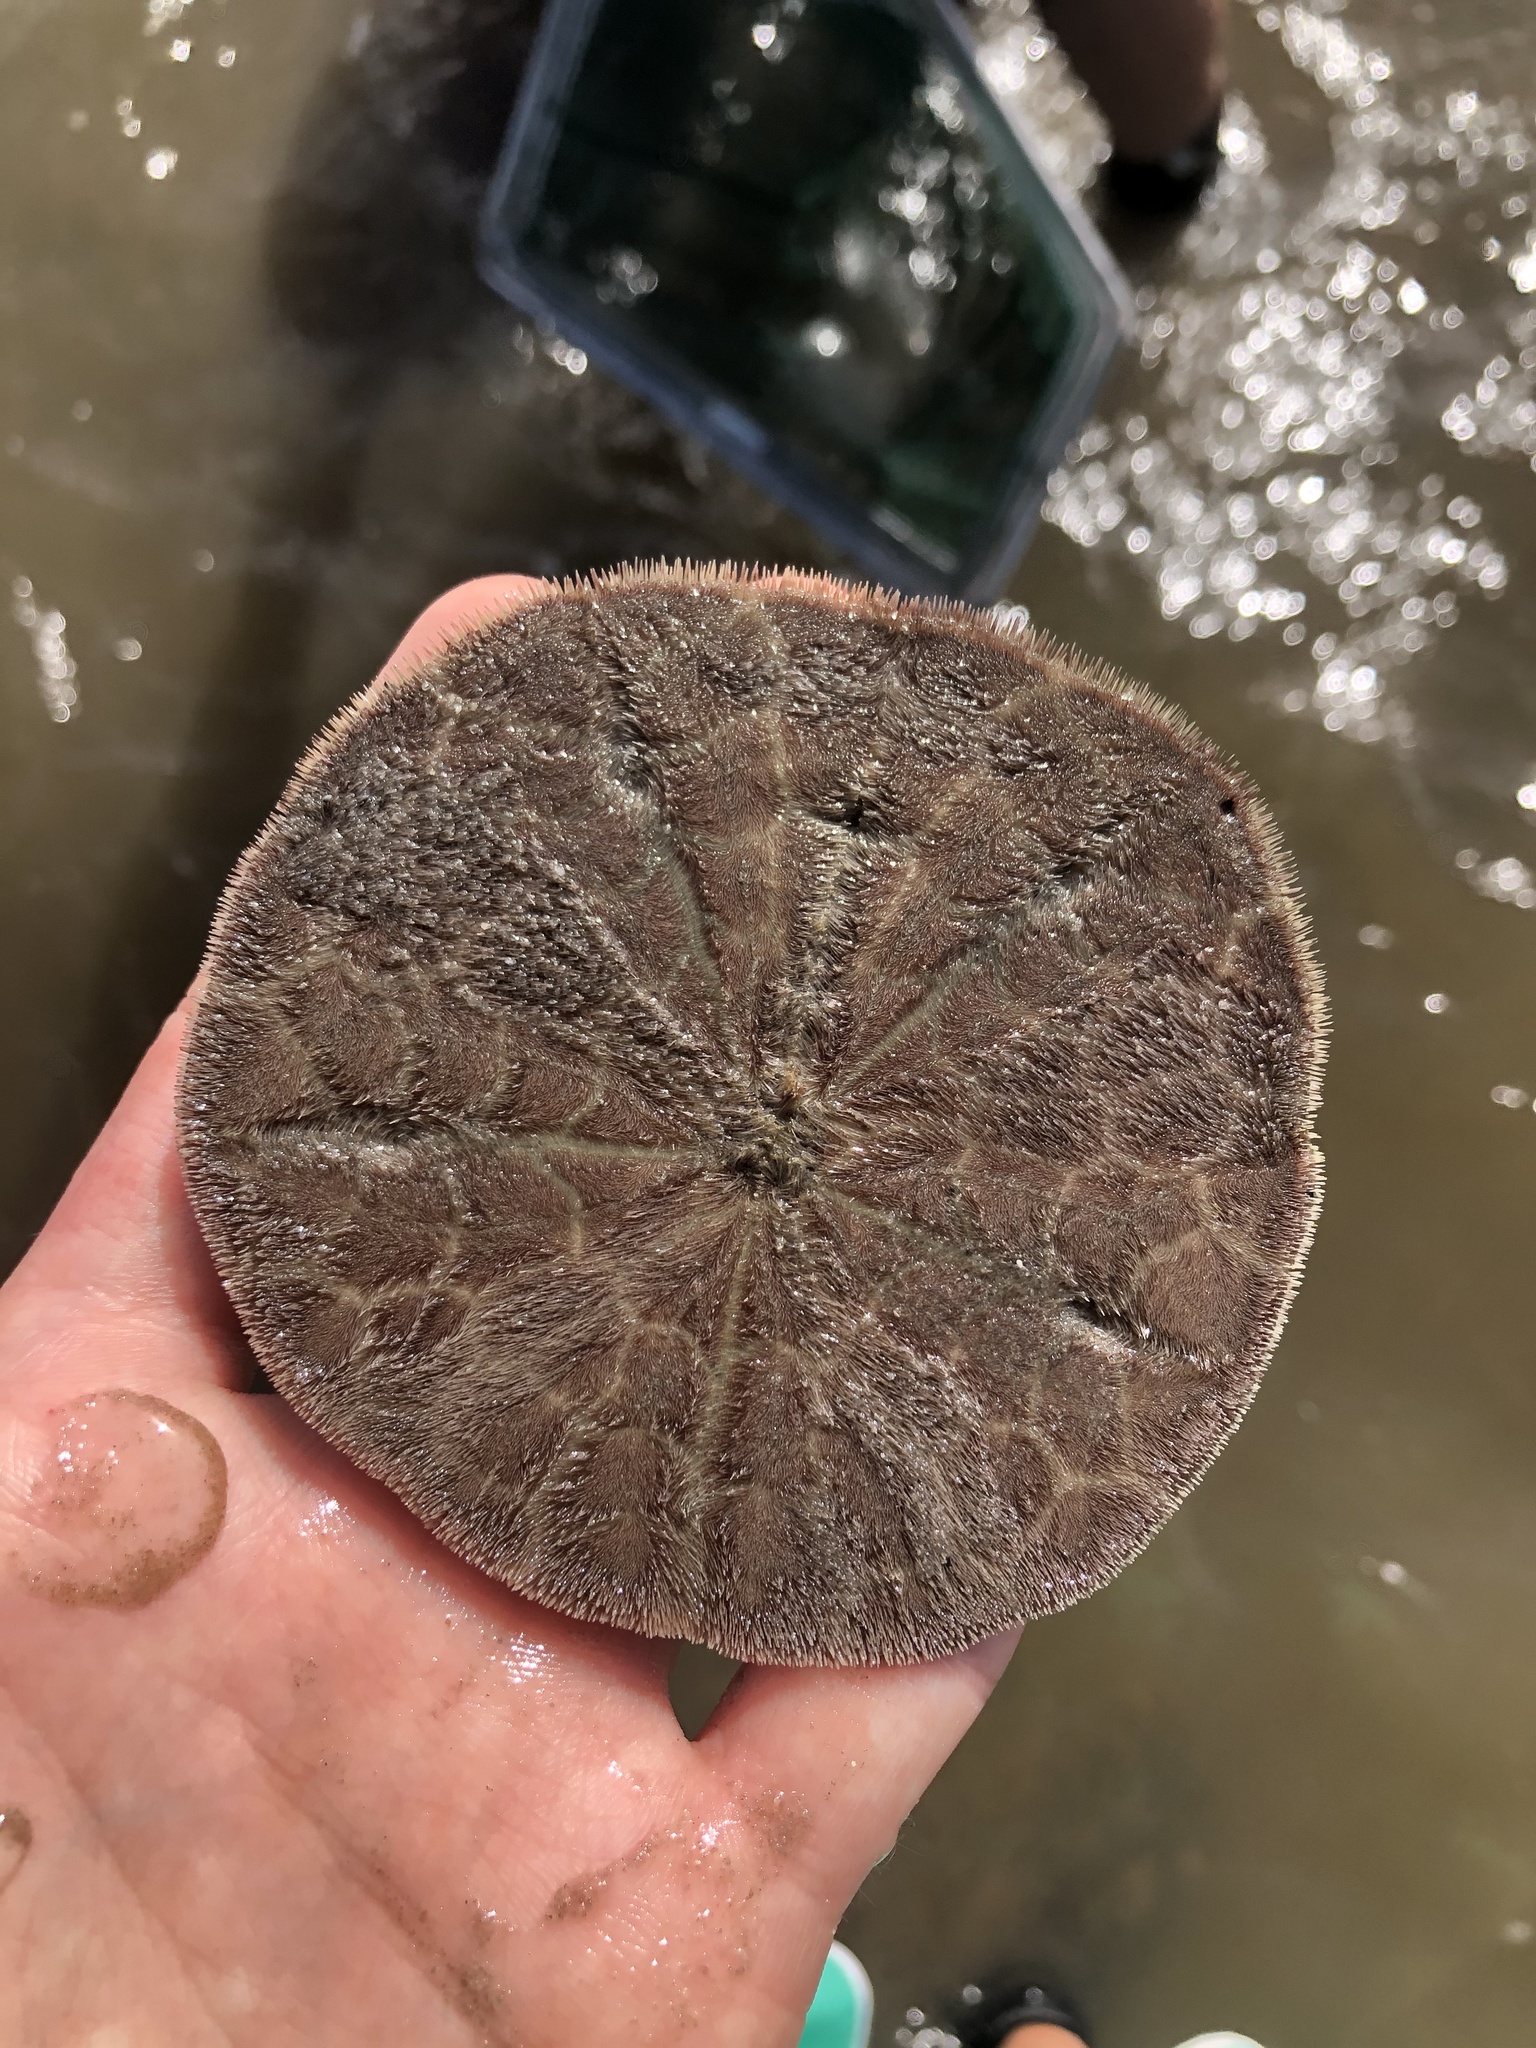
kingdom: Animalia
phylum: Echinodermata
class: Echinoidea
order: Echinolampadacea
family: Mellitidae
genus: Mellita
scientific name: Mellita tenuis
